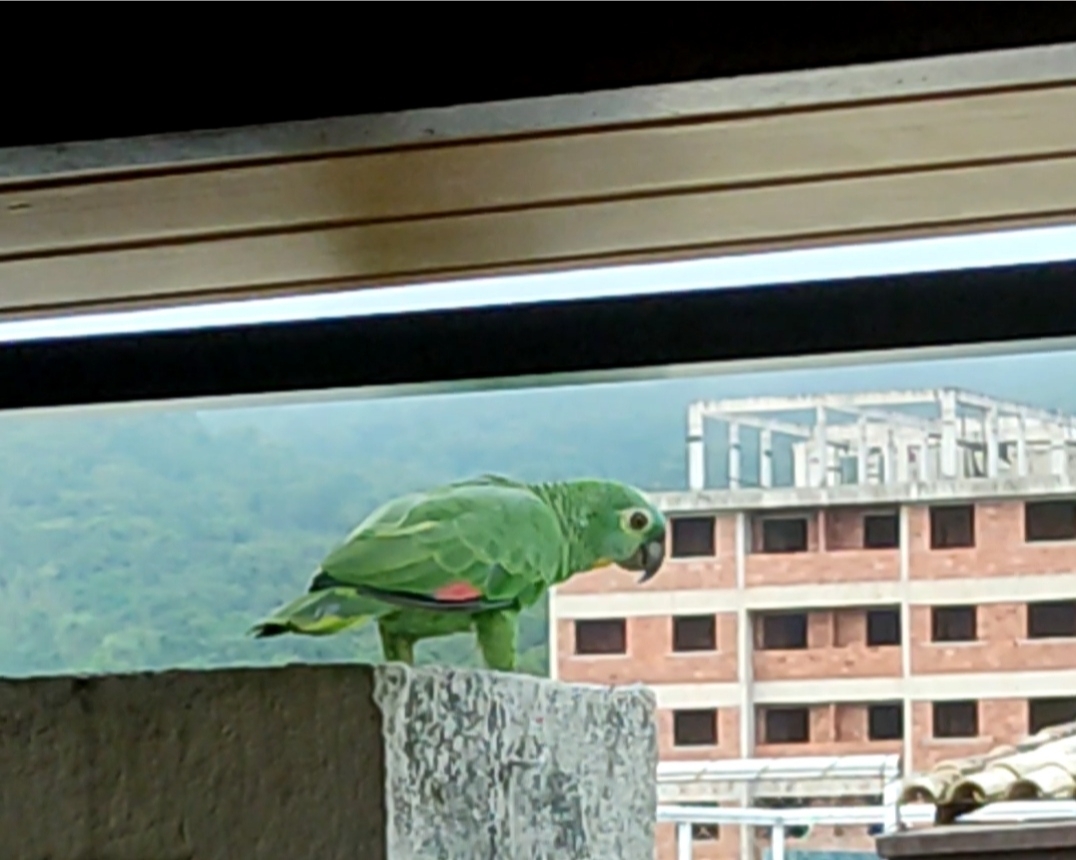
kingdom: Animalia
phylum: Chordata
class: Aves
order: Psittaciformes
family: Psittacidae
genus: Amazona
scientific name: Amazona aestiva
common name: Turquoise-fronted amazon
